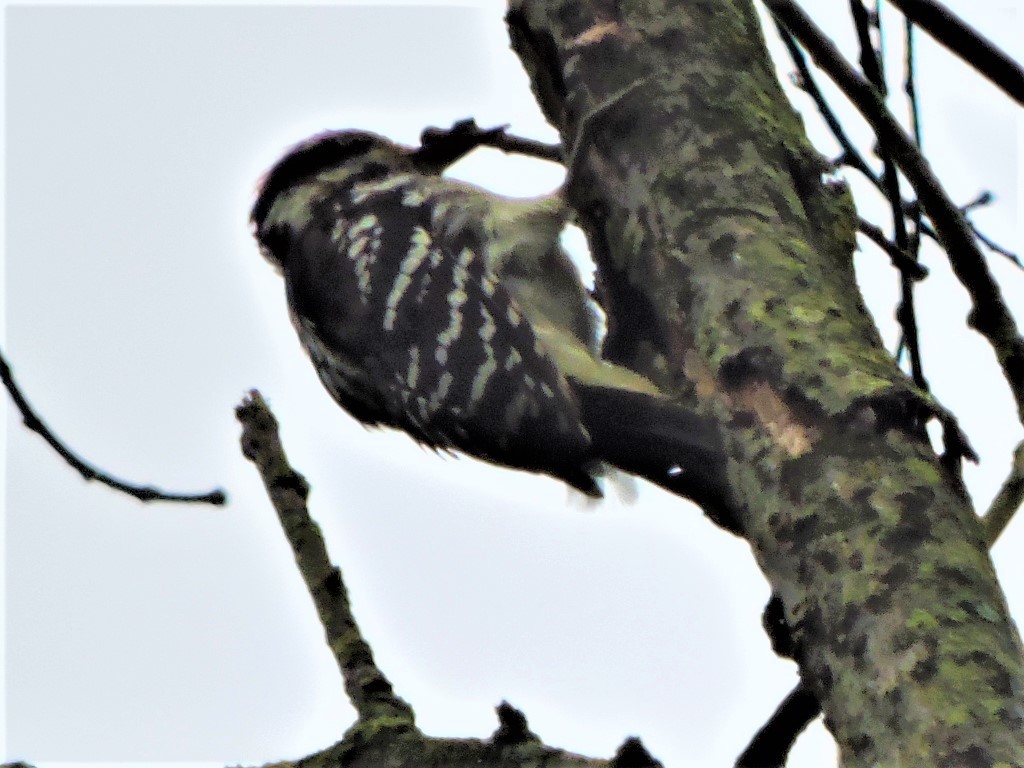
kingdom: Animalia
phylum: Chordata
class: Aves
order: Piciformes
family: Picidae
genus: Leuconotopicus
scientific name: Leuconotopicus villosus
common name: Hairy woodpecker
